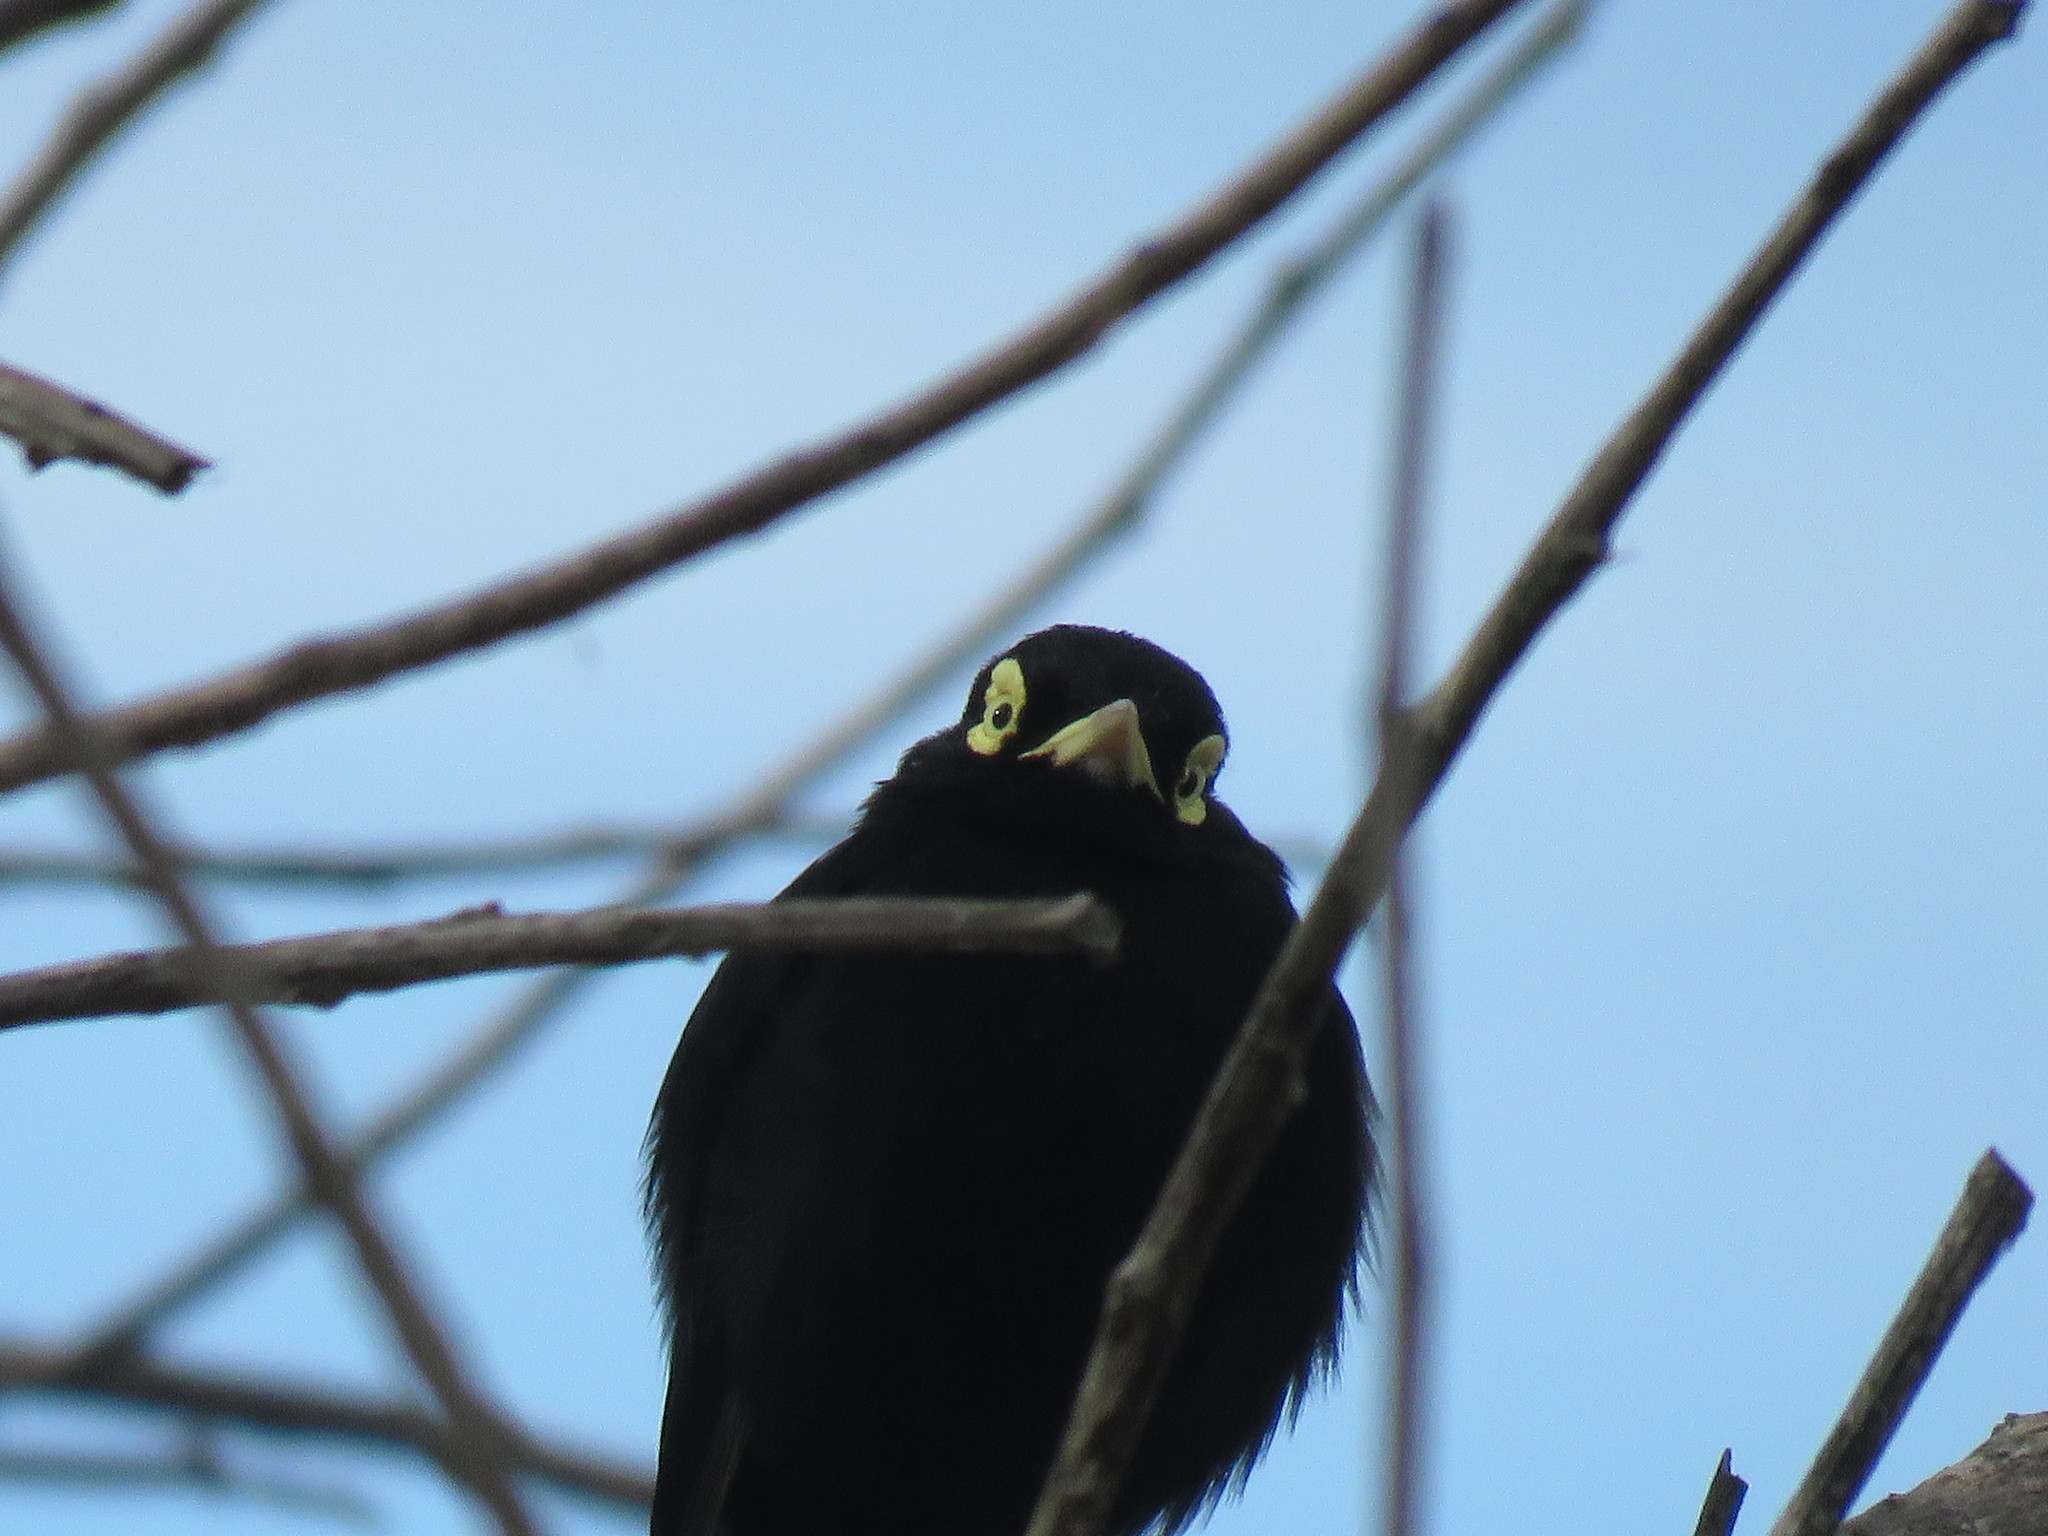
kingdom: Animalia
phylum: Chordata
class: Aves
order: Passeriformes
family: Tyrannidae
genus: Hymenops
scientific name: Hymenops perspicillatus
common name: Spectacled tyrant
